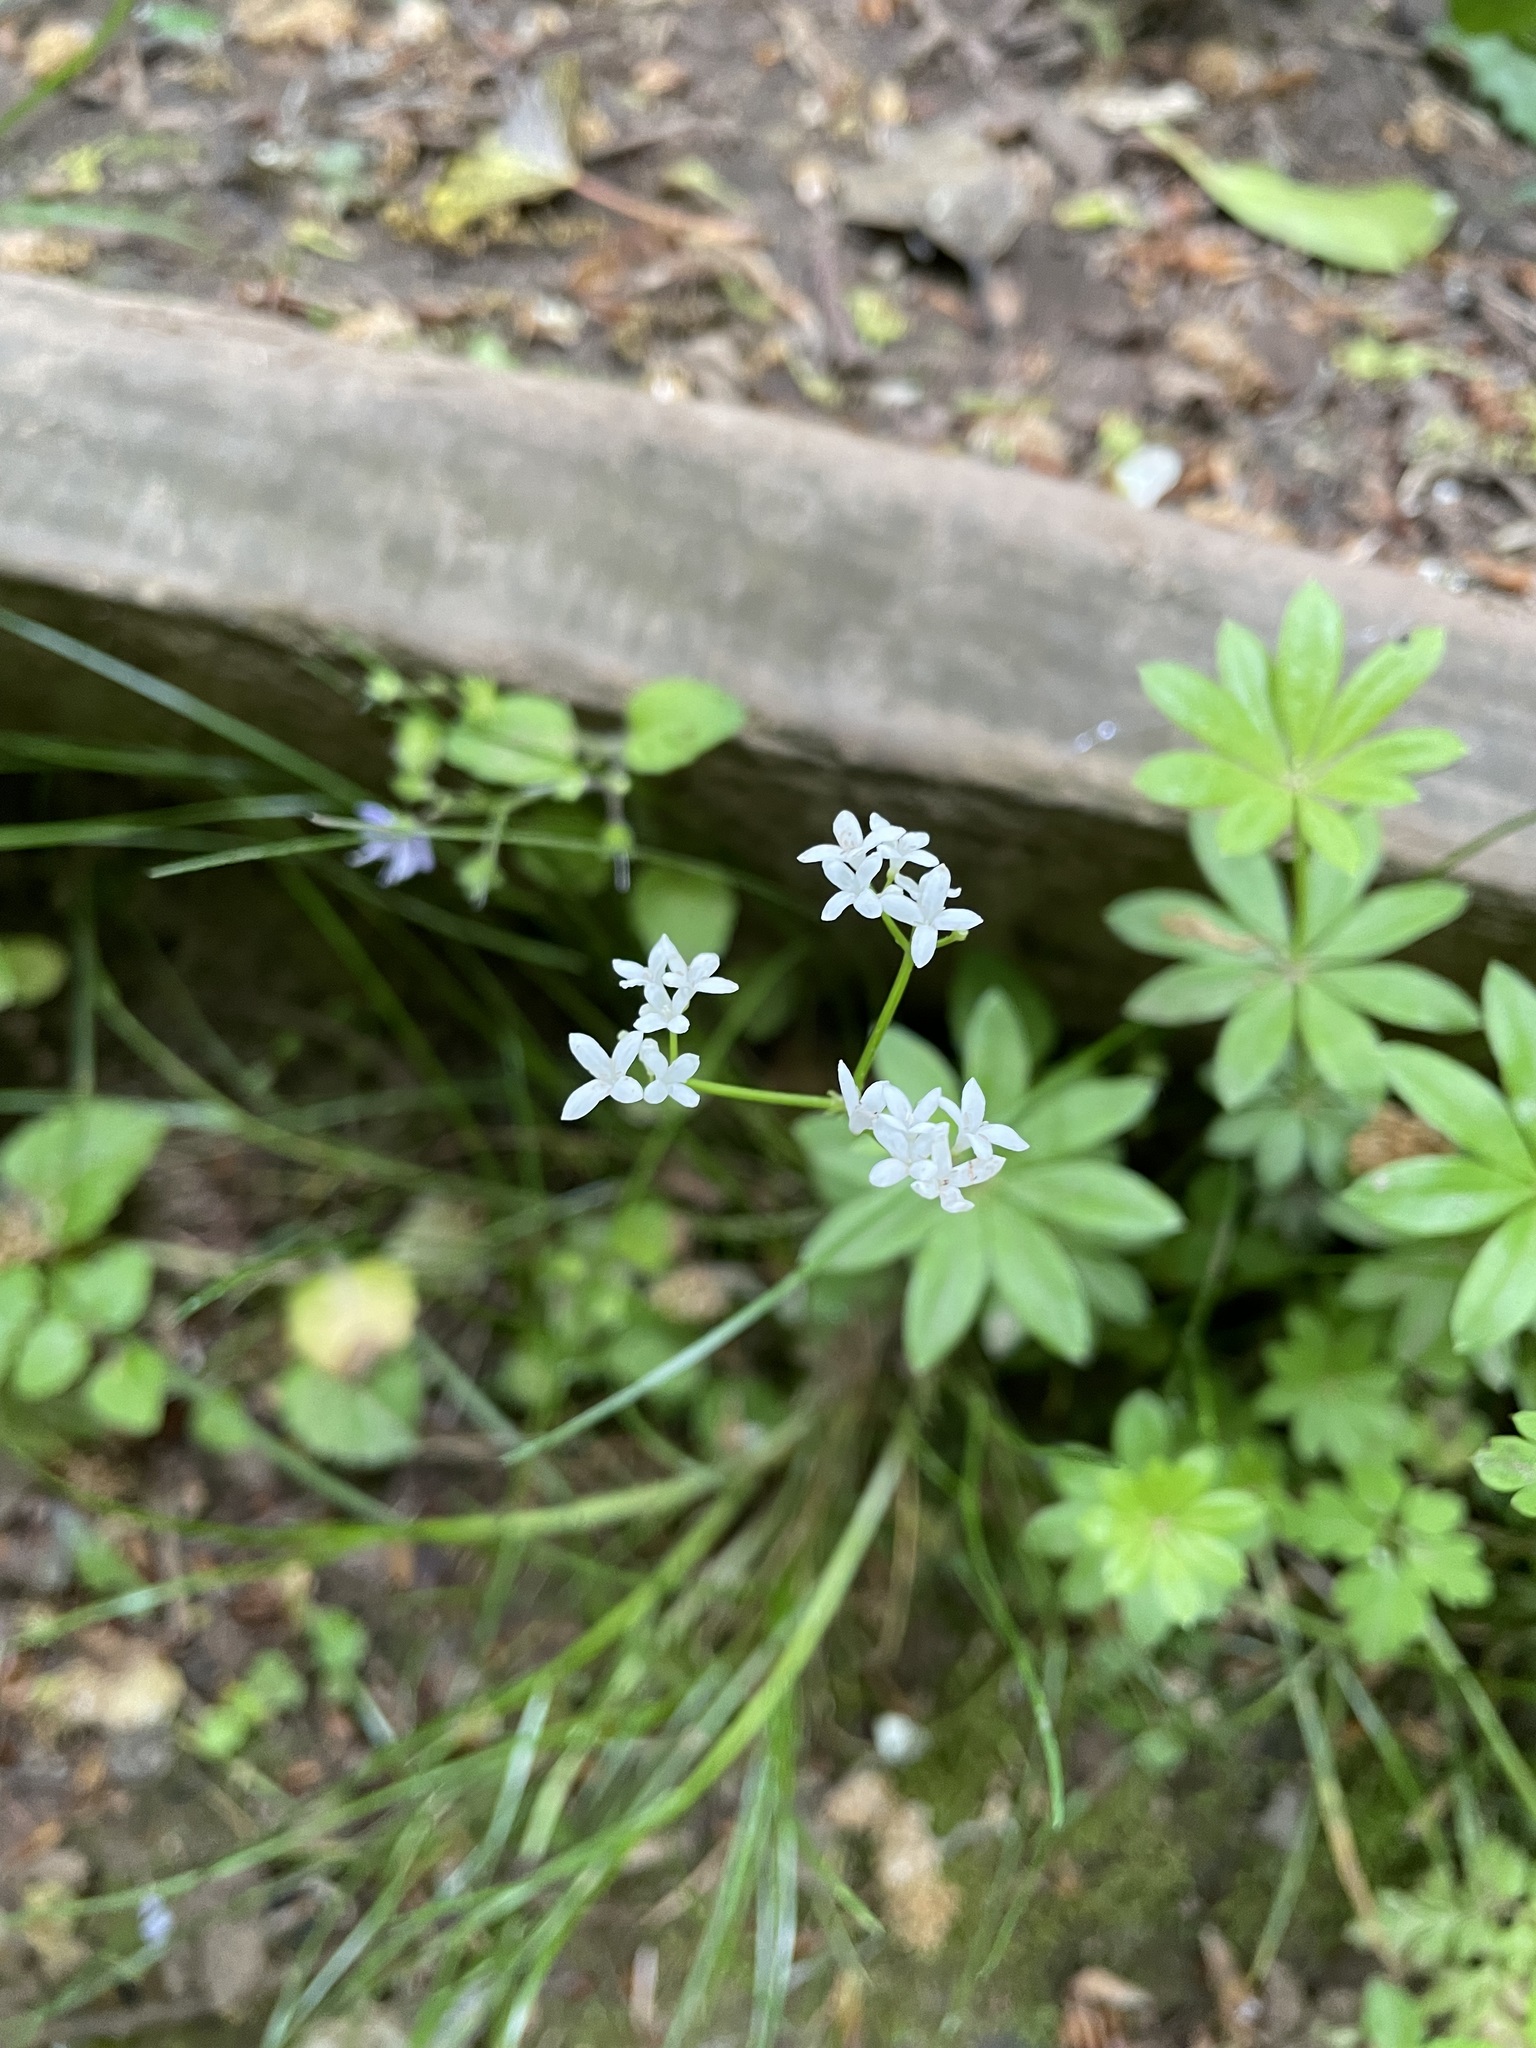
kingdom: Plantae
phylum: Tracheophyta
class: Magnoliopsida
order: Gentianales
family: Rubiaceae
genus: Galium
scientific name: Galium odoratum
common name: Sweet woodruff
